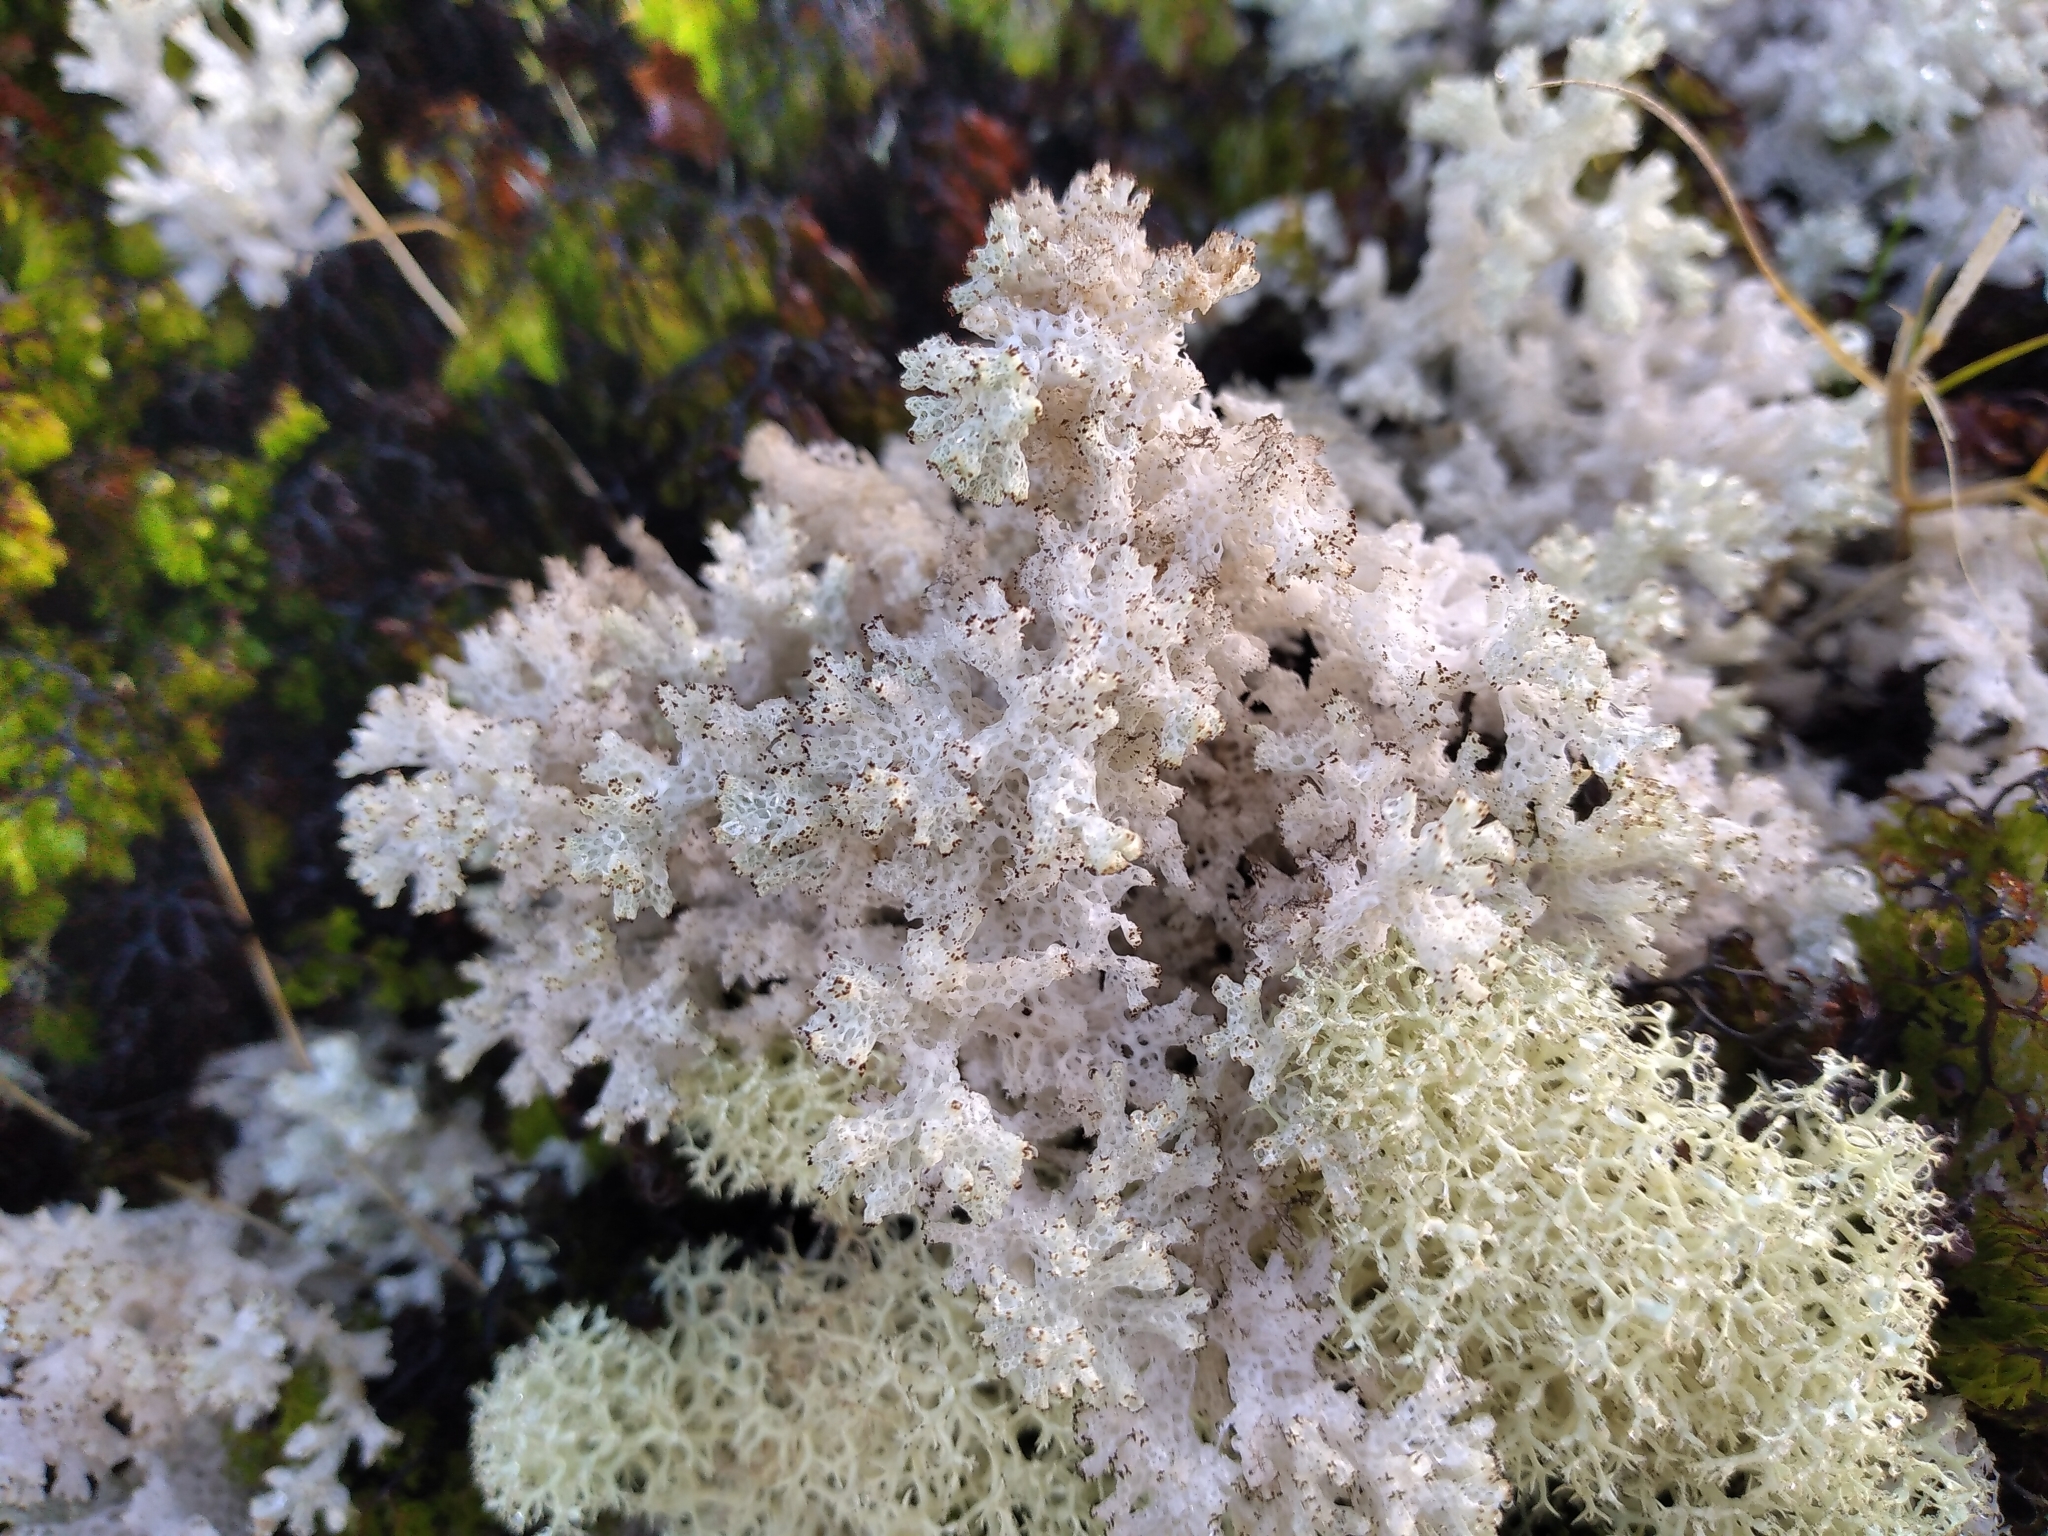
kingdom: Fungi
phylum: Ascomycota
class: Lecanoromycetes
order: Lecanorales
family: Cladoniaceae
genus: Pulchrocladia
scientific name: Pulchrocladia retipora
